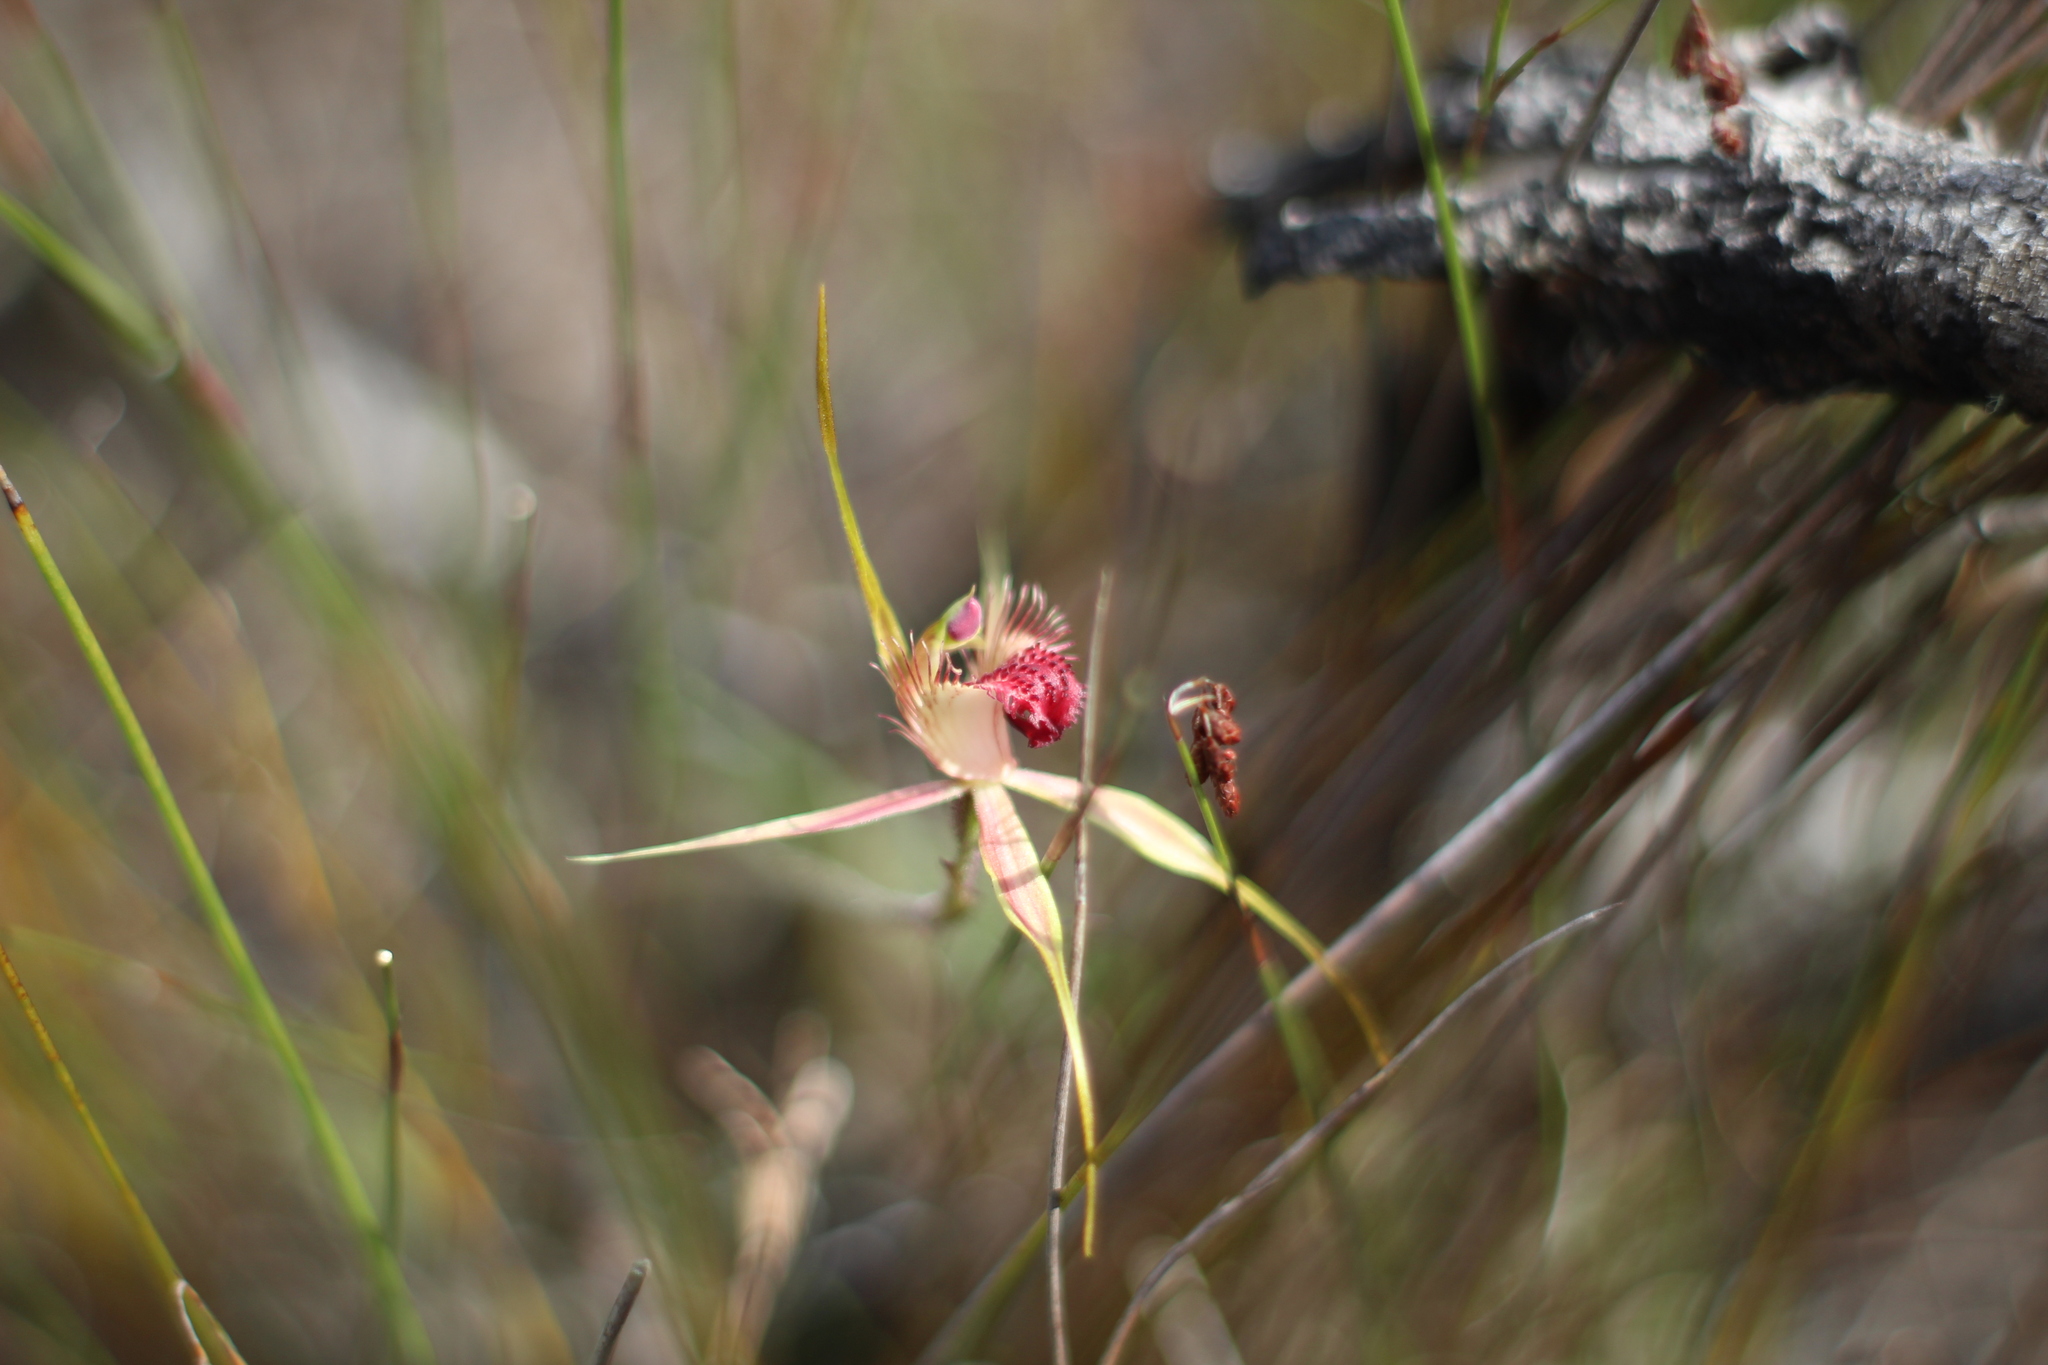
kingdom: Plantae
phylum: Tracheophyta
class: Liliopsida
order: Asparagales
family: Orchidaceae
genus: Caladenia
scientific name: Caladenia pectinata
